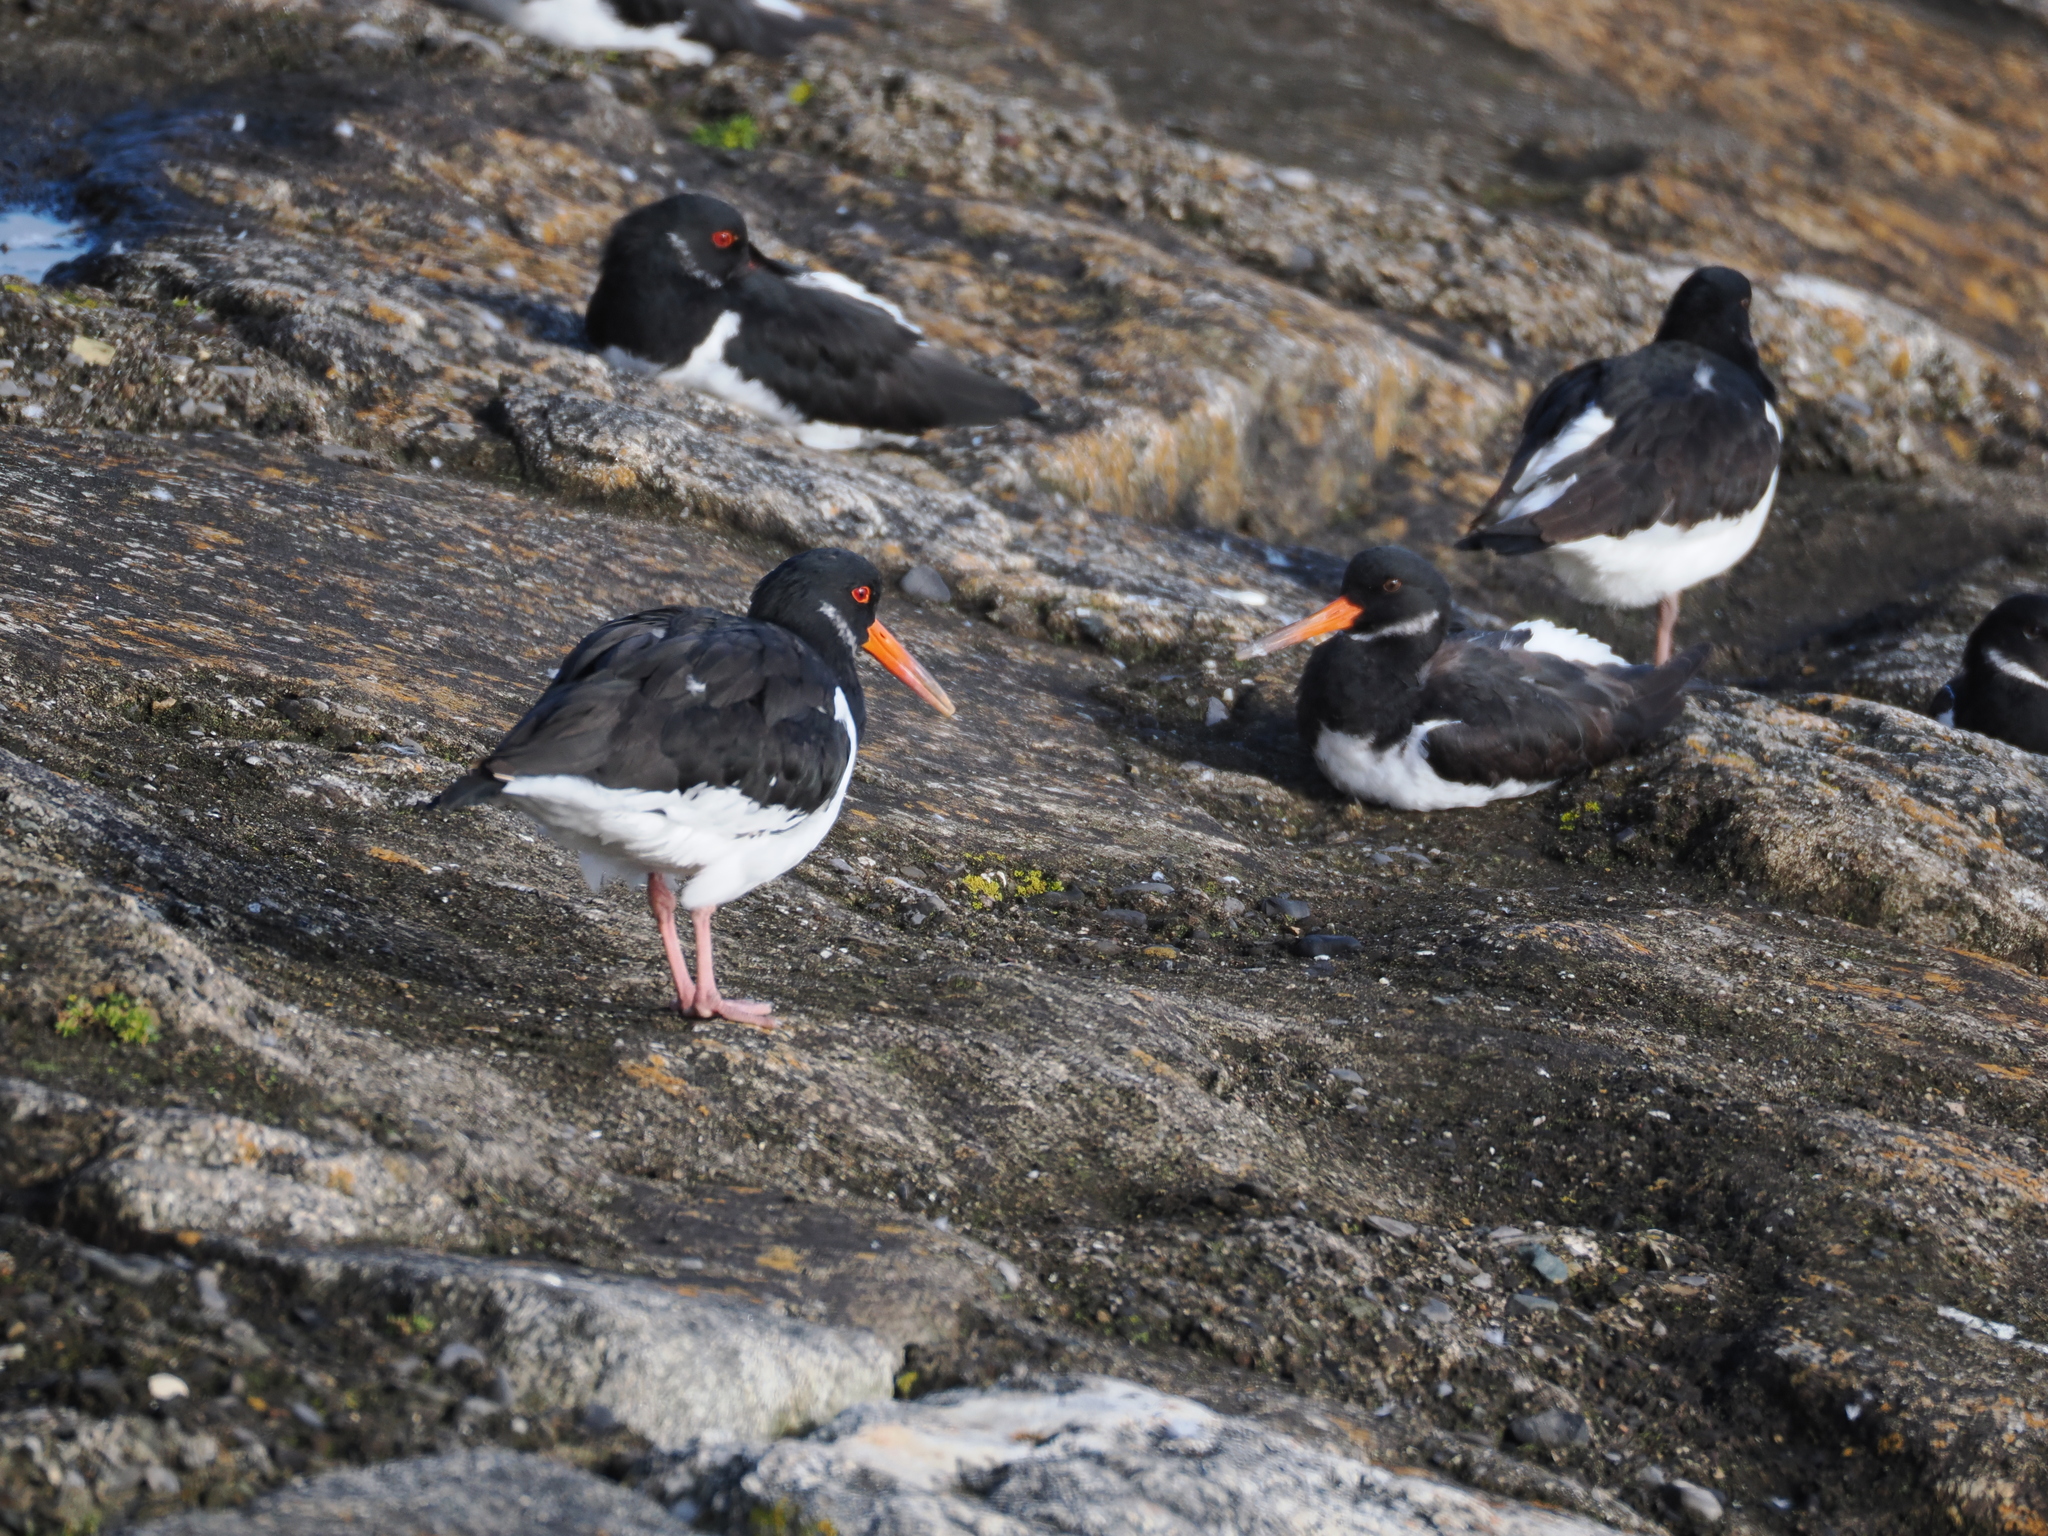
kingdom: Animalia
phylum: Chordata
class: Aves
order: Charadriiformes
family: Haematopodidae
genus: Haematopus
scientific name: Haematopus ostralegus
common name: Eurasian oystercatcher
